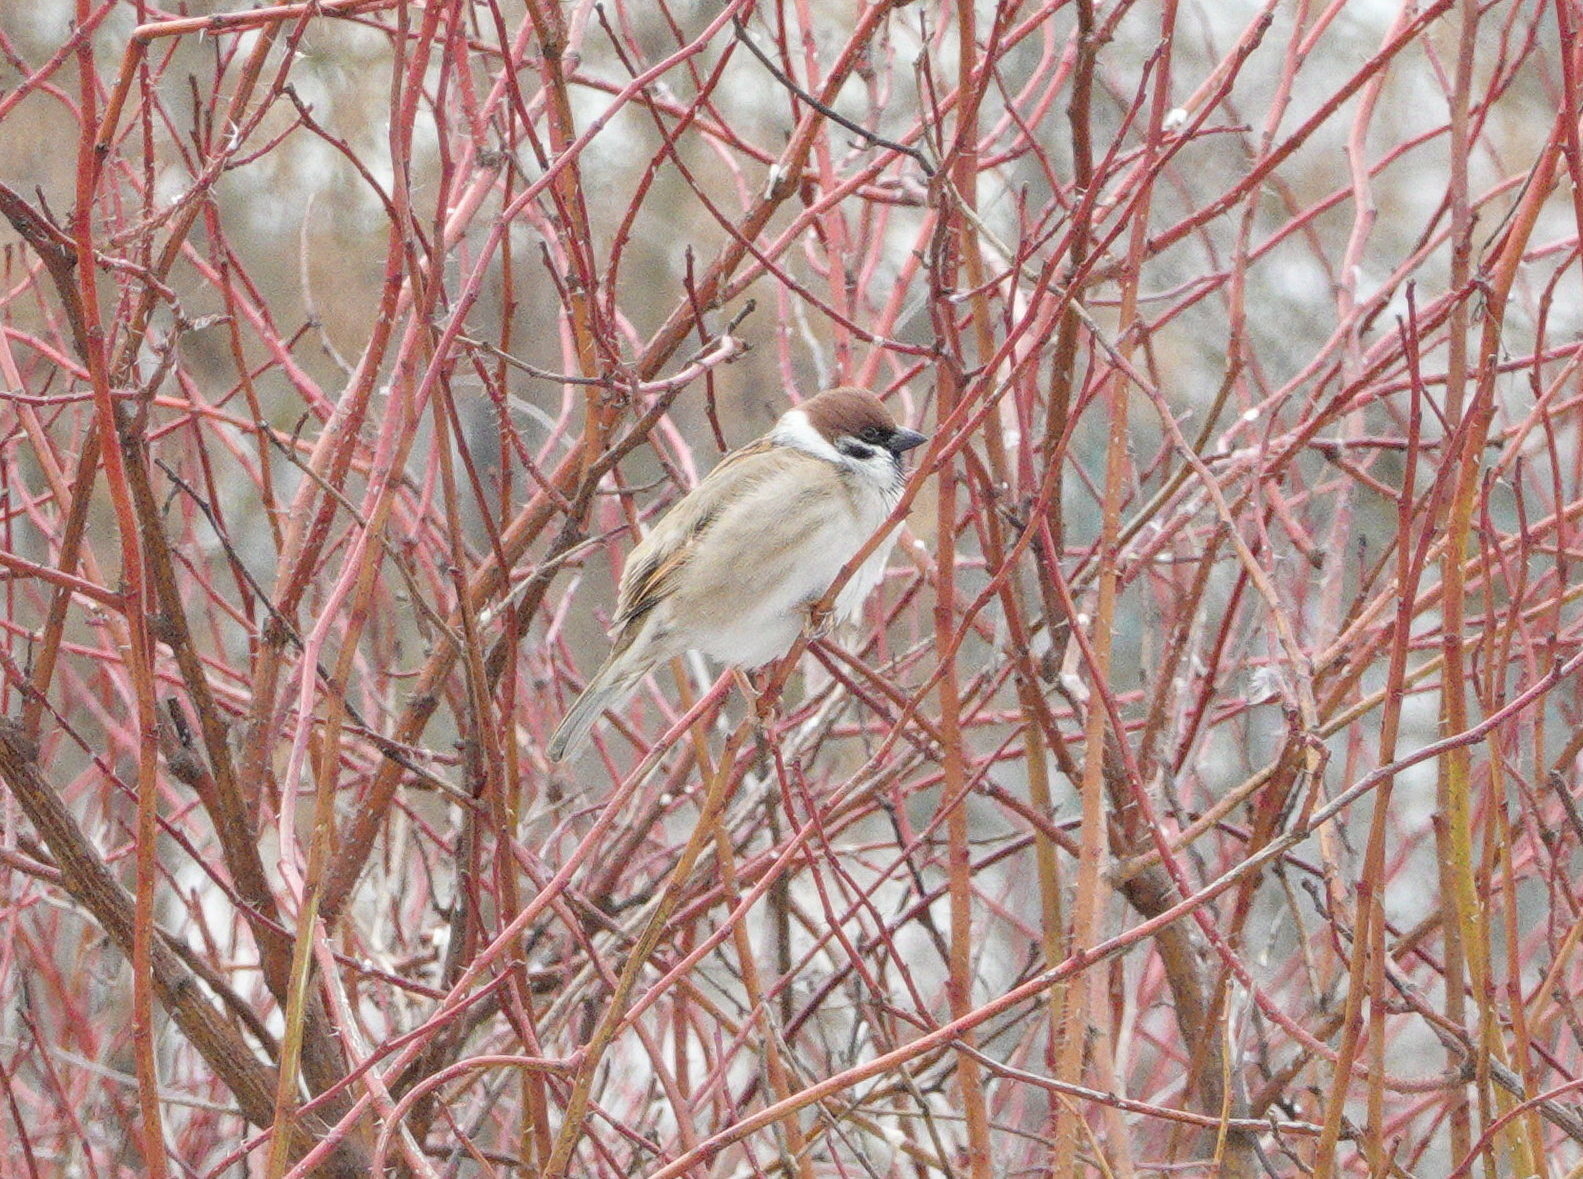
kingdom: Animalia
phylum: Chordata
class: Aves
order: Passeriformes
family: Passeridae
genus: Passer
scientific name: Passer montanus
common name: Eurasian tree sparrow
